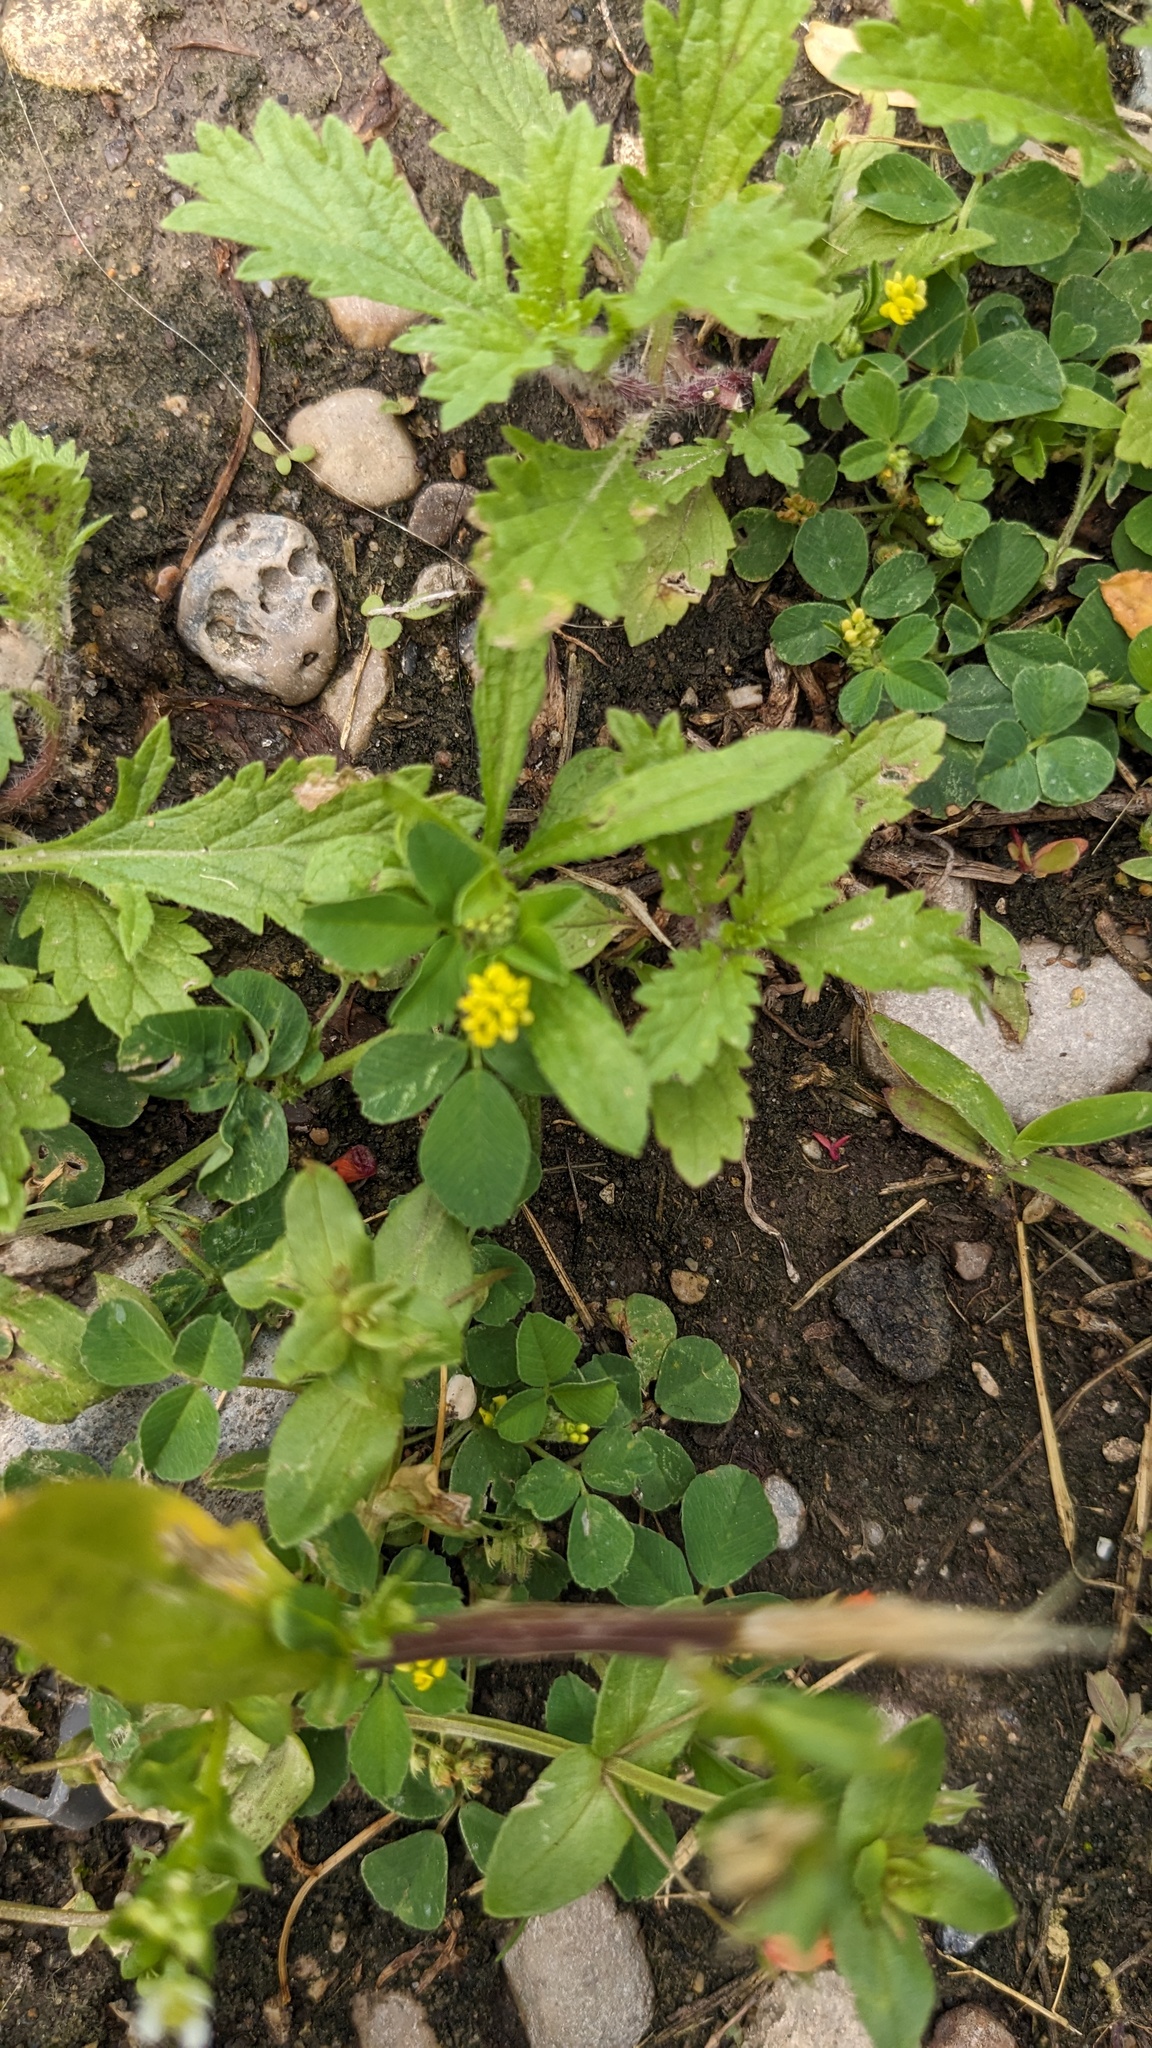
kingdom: Plantae
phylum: Tracheophyta
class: Magnoliopsida
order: Fabales
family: Fabaceae
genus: Medicago
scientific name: Medicago lupulina
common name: Black medick
